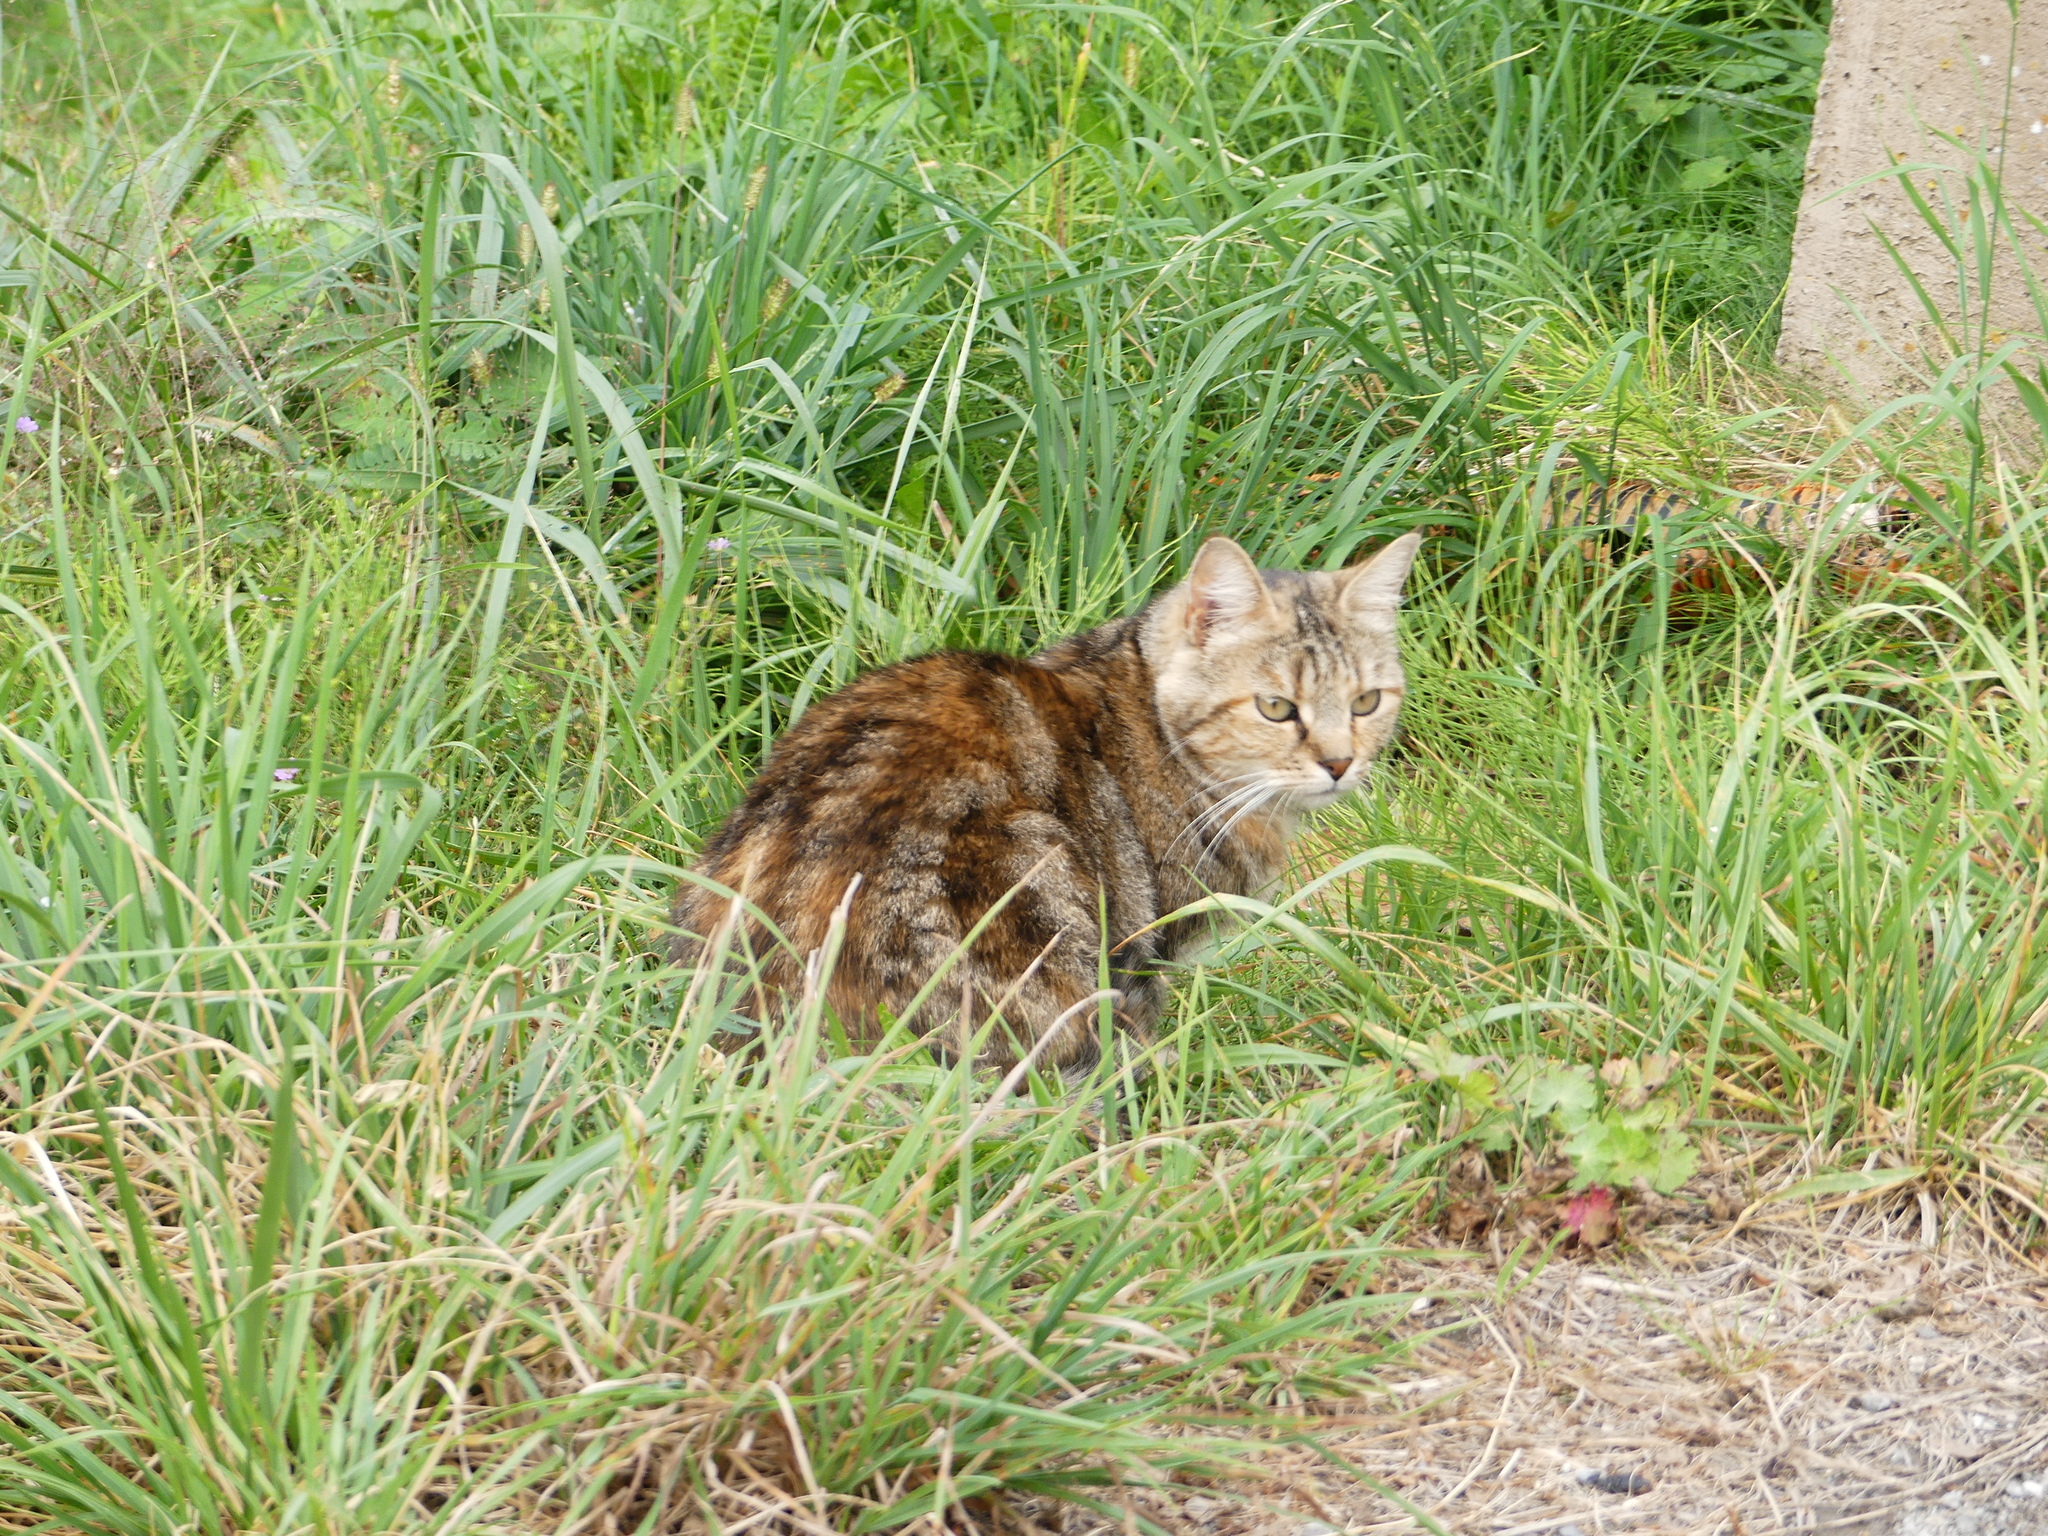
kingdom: Animalia
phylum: Chordata
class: Mammalia
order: Carnivora
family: Felidae
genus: Felis
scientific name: Felis catus
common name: Domestic cat
